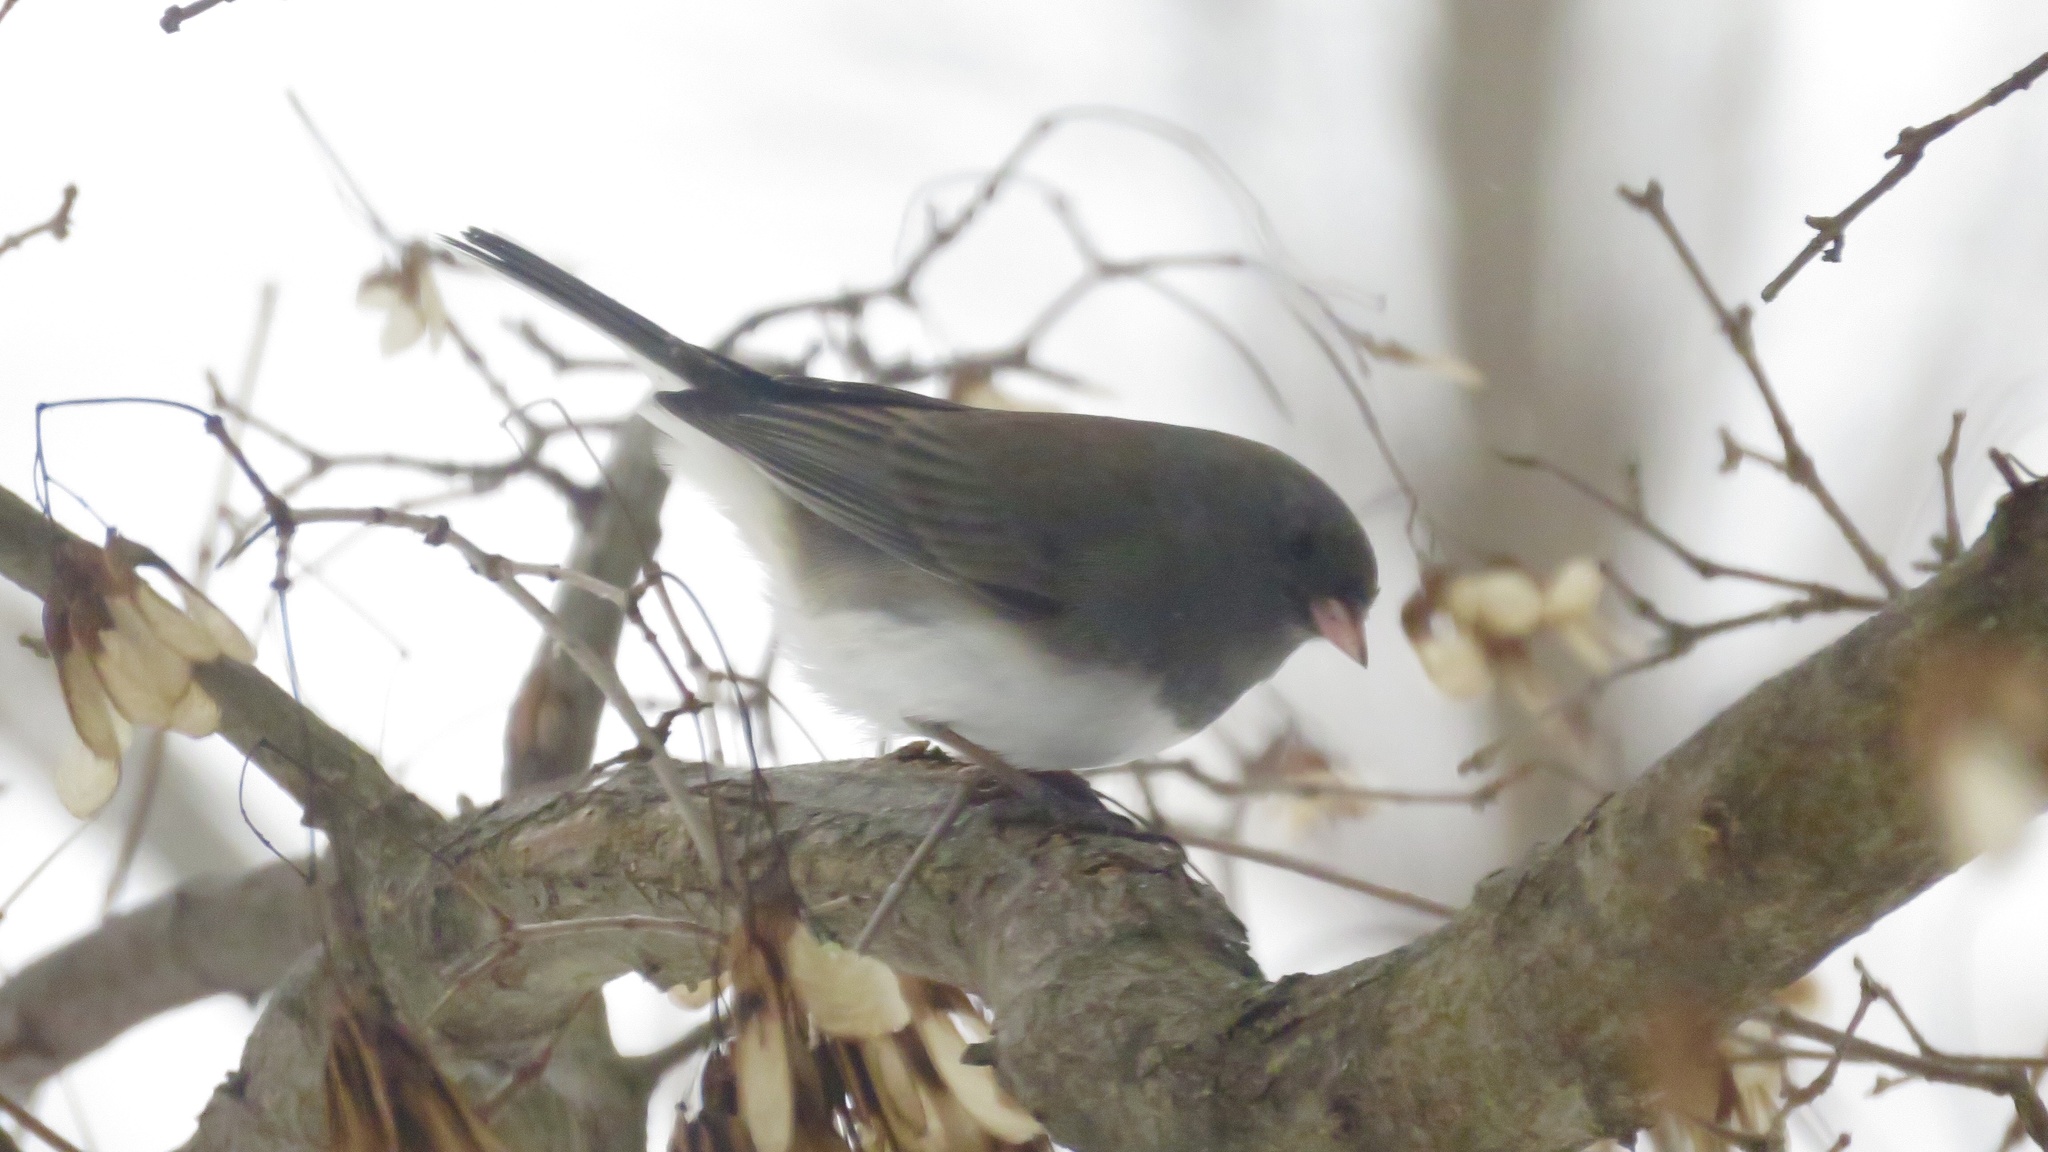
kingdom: Animalia
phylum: Chordata
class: Aves
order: Passeriformes
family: Passerellidae
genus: Junco
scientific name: Junco hyemalis
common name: Dark-eyed junco
